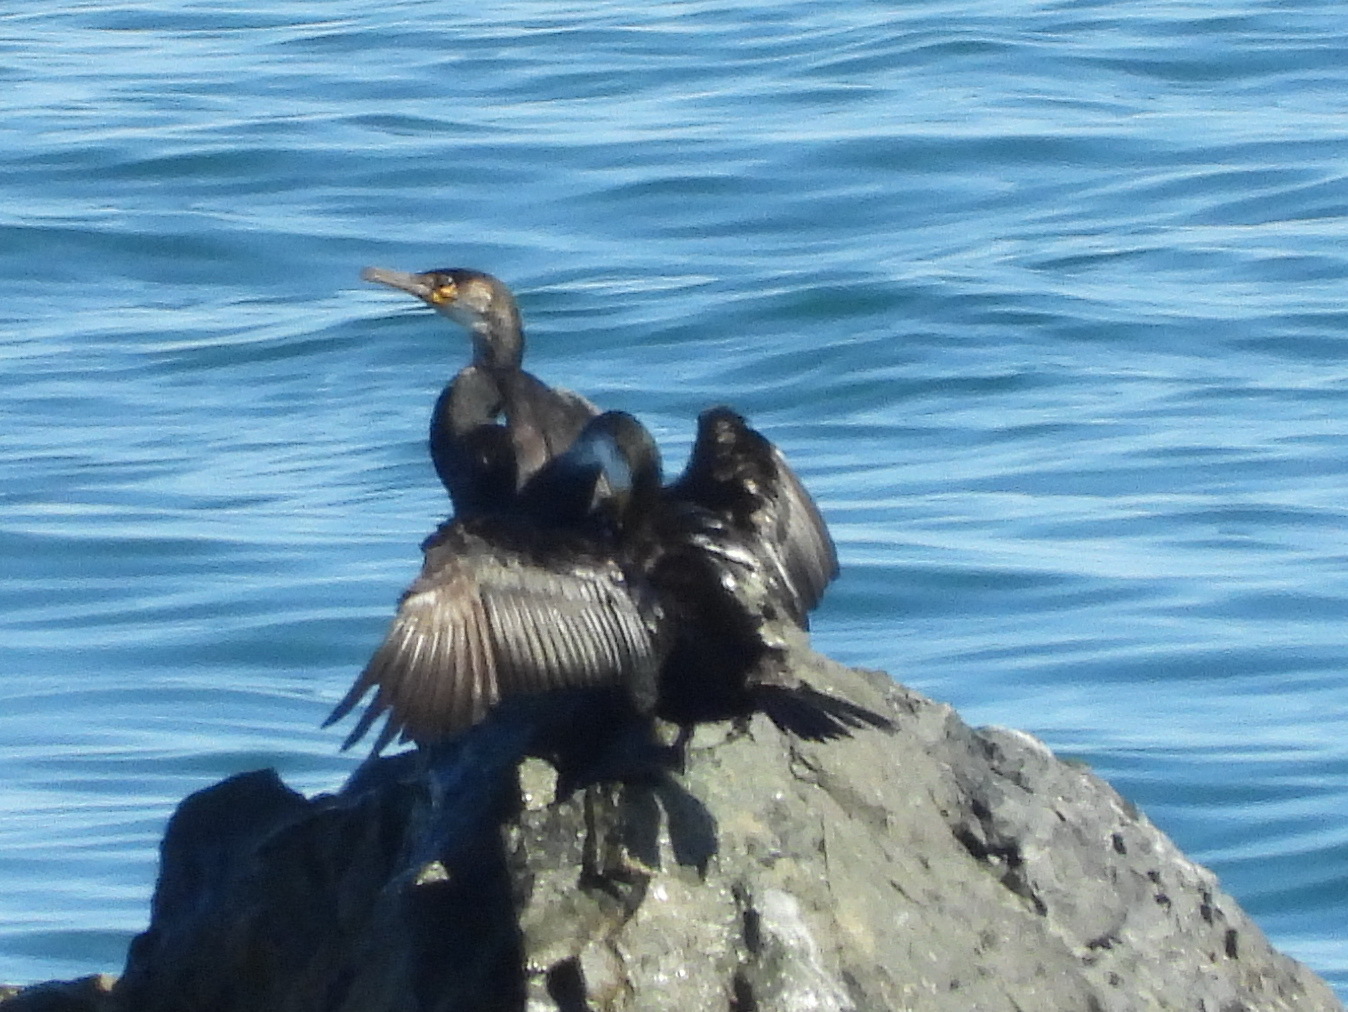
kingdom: Animalia
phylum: Chordata
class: Aves
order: Suliformes
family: Phalacrocoracidae
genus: Phalacrocorax
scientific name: Phalacrocorax capillatus
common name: Japanese cormorant
